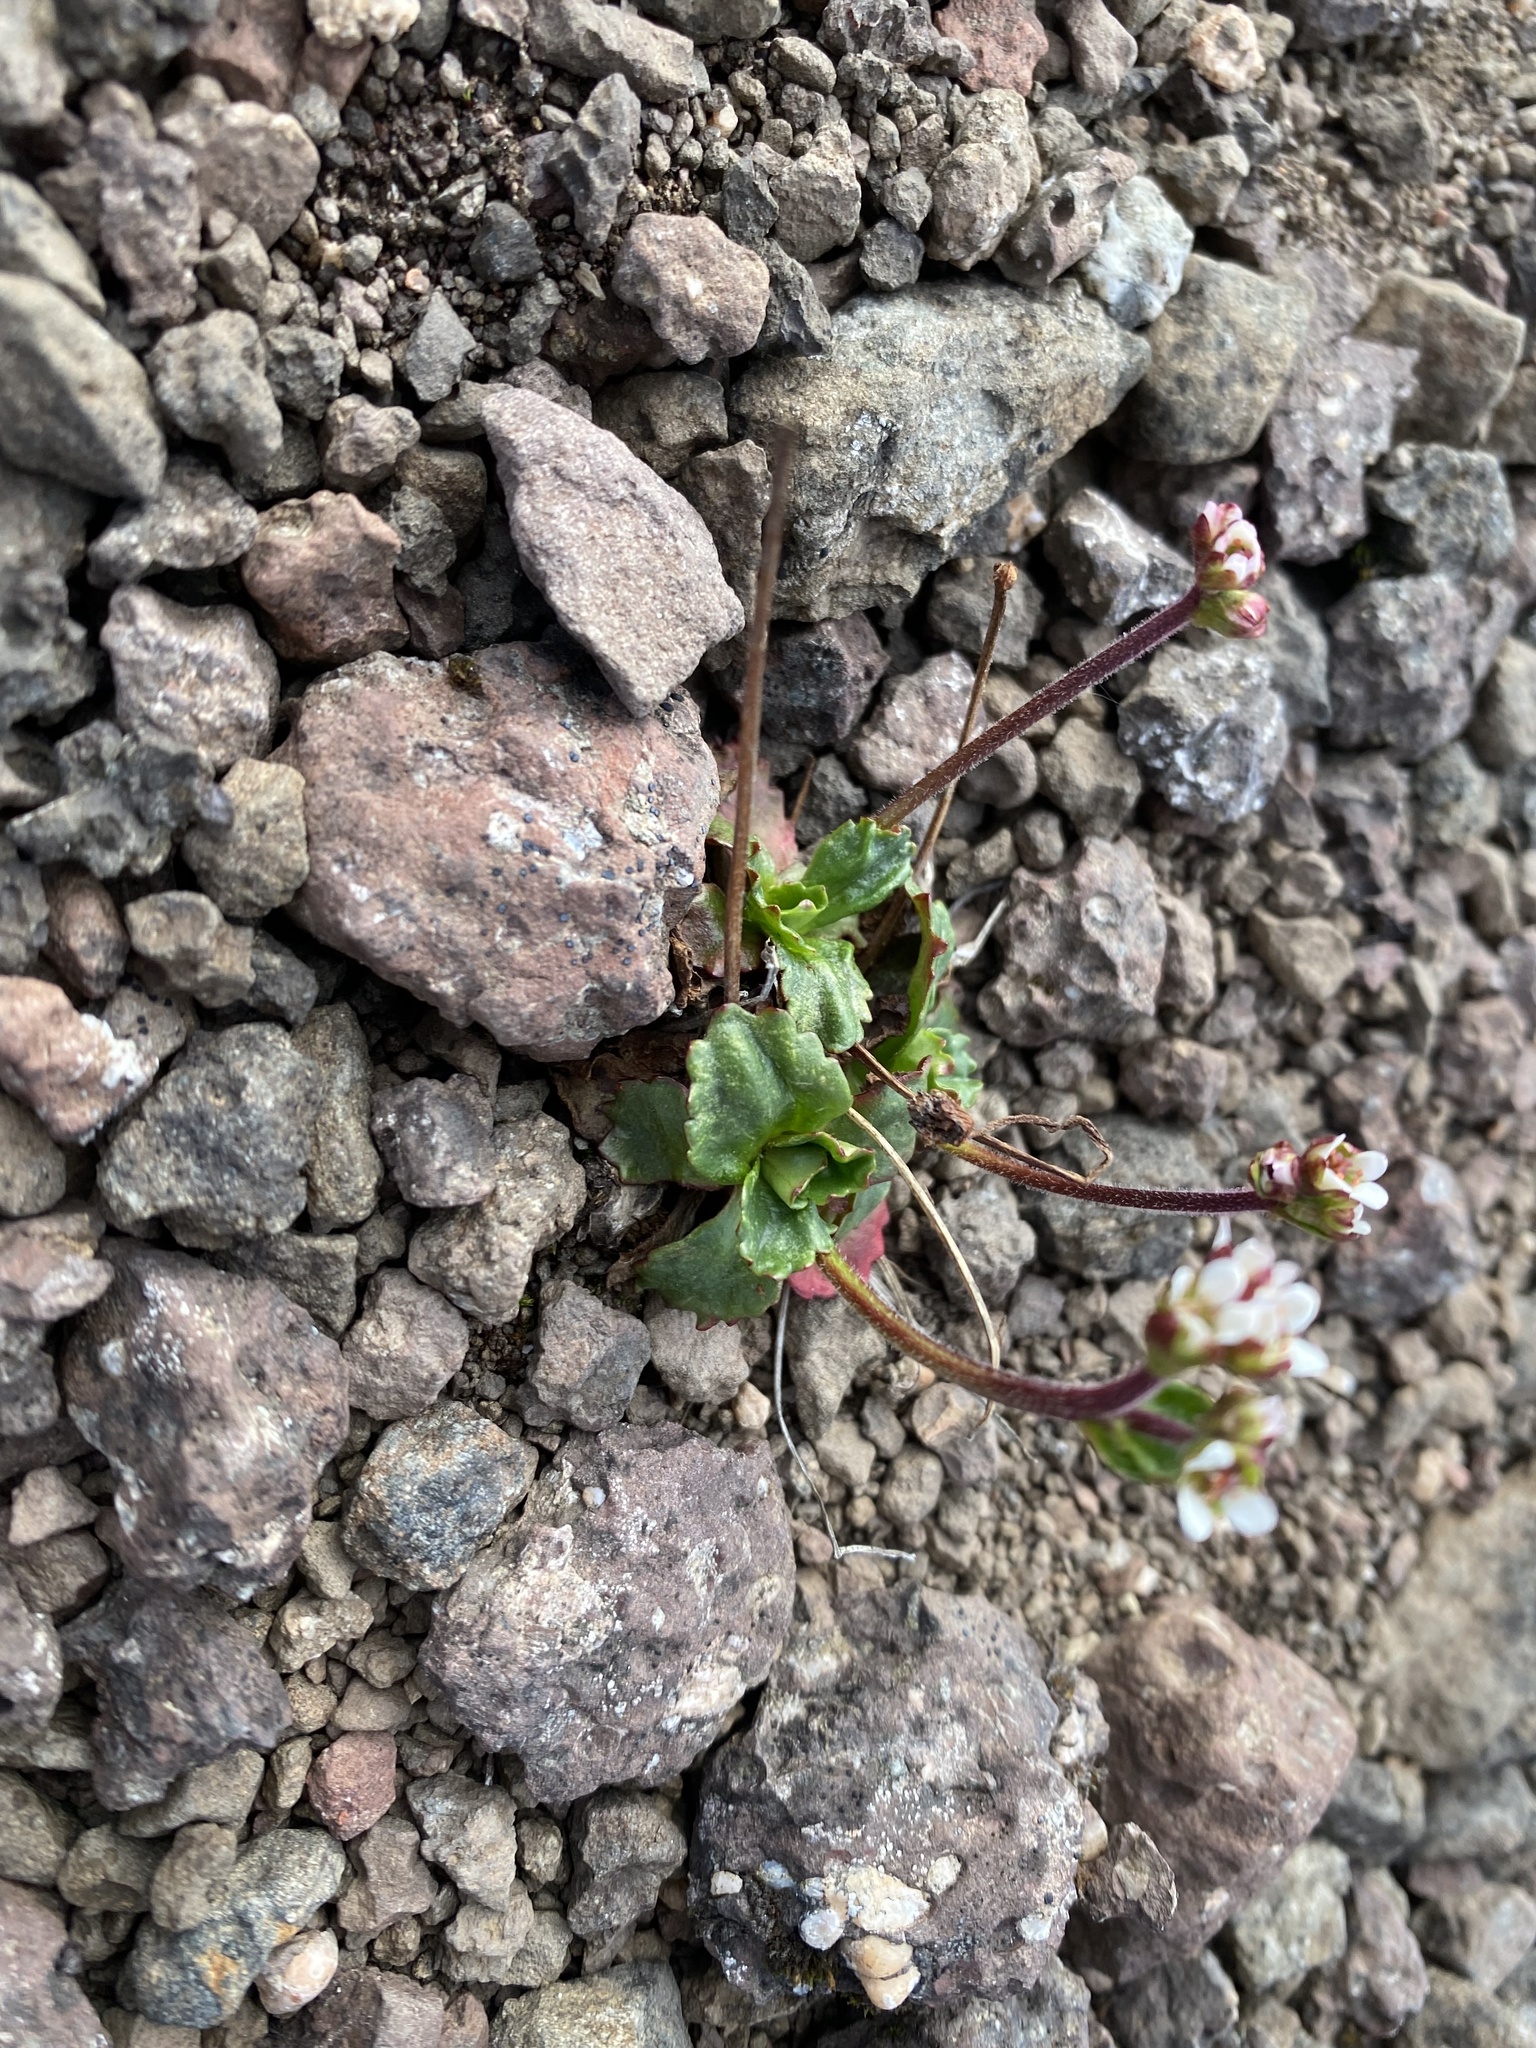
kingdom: Plantae
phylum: Tracheophyta
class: Magnoliopsida
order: Saxifragales
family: Saxifragaceae
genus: Micranthes
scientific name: Micranthes nivalis
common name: Alpine saxifrage
